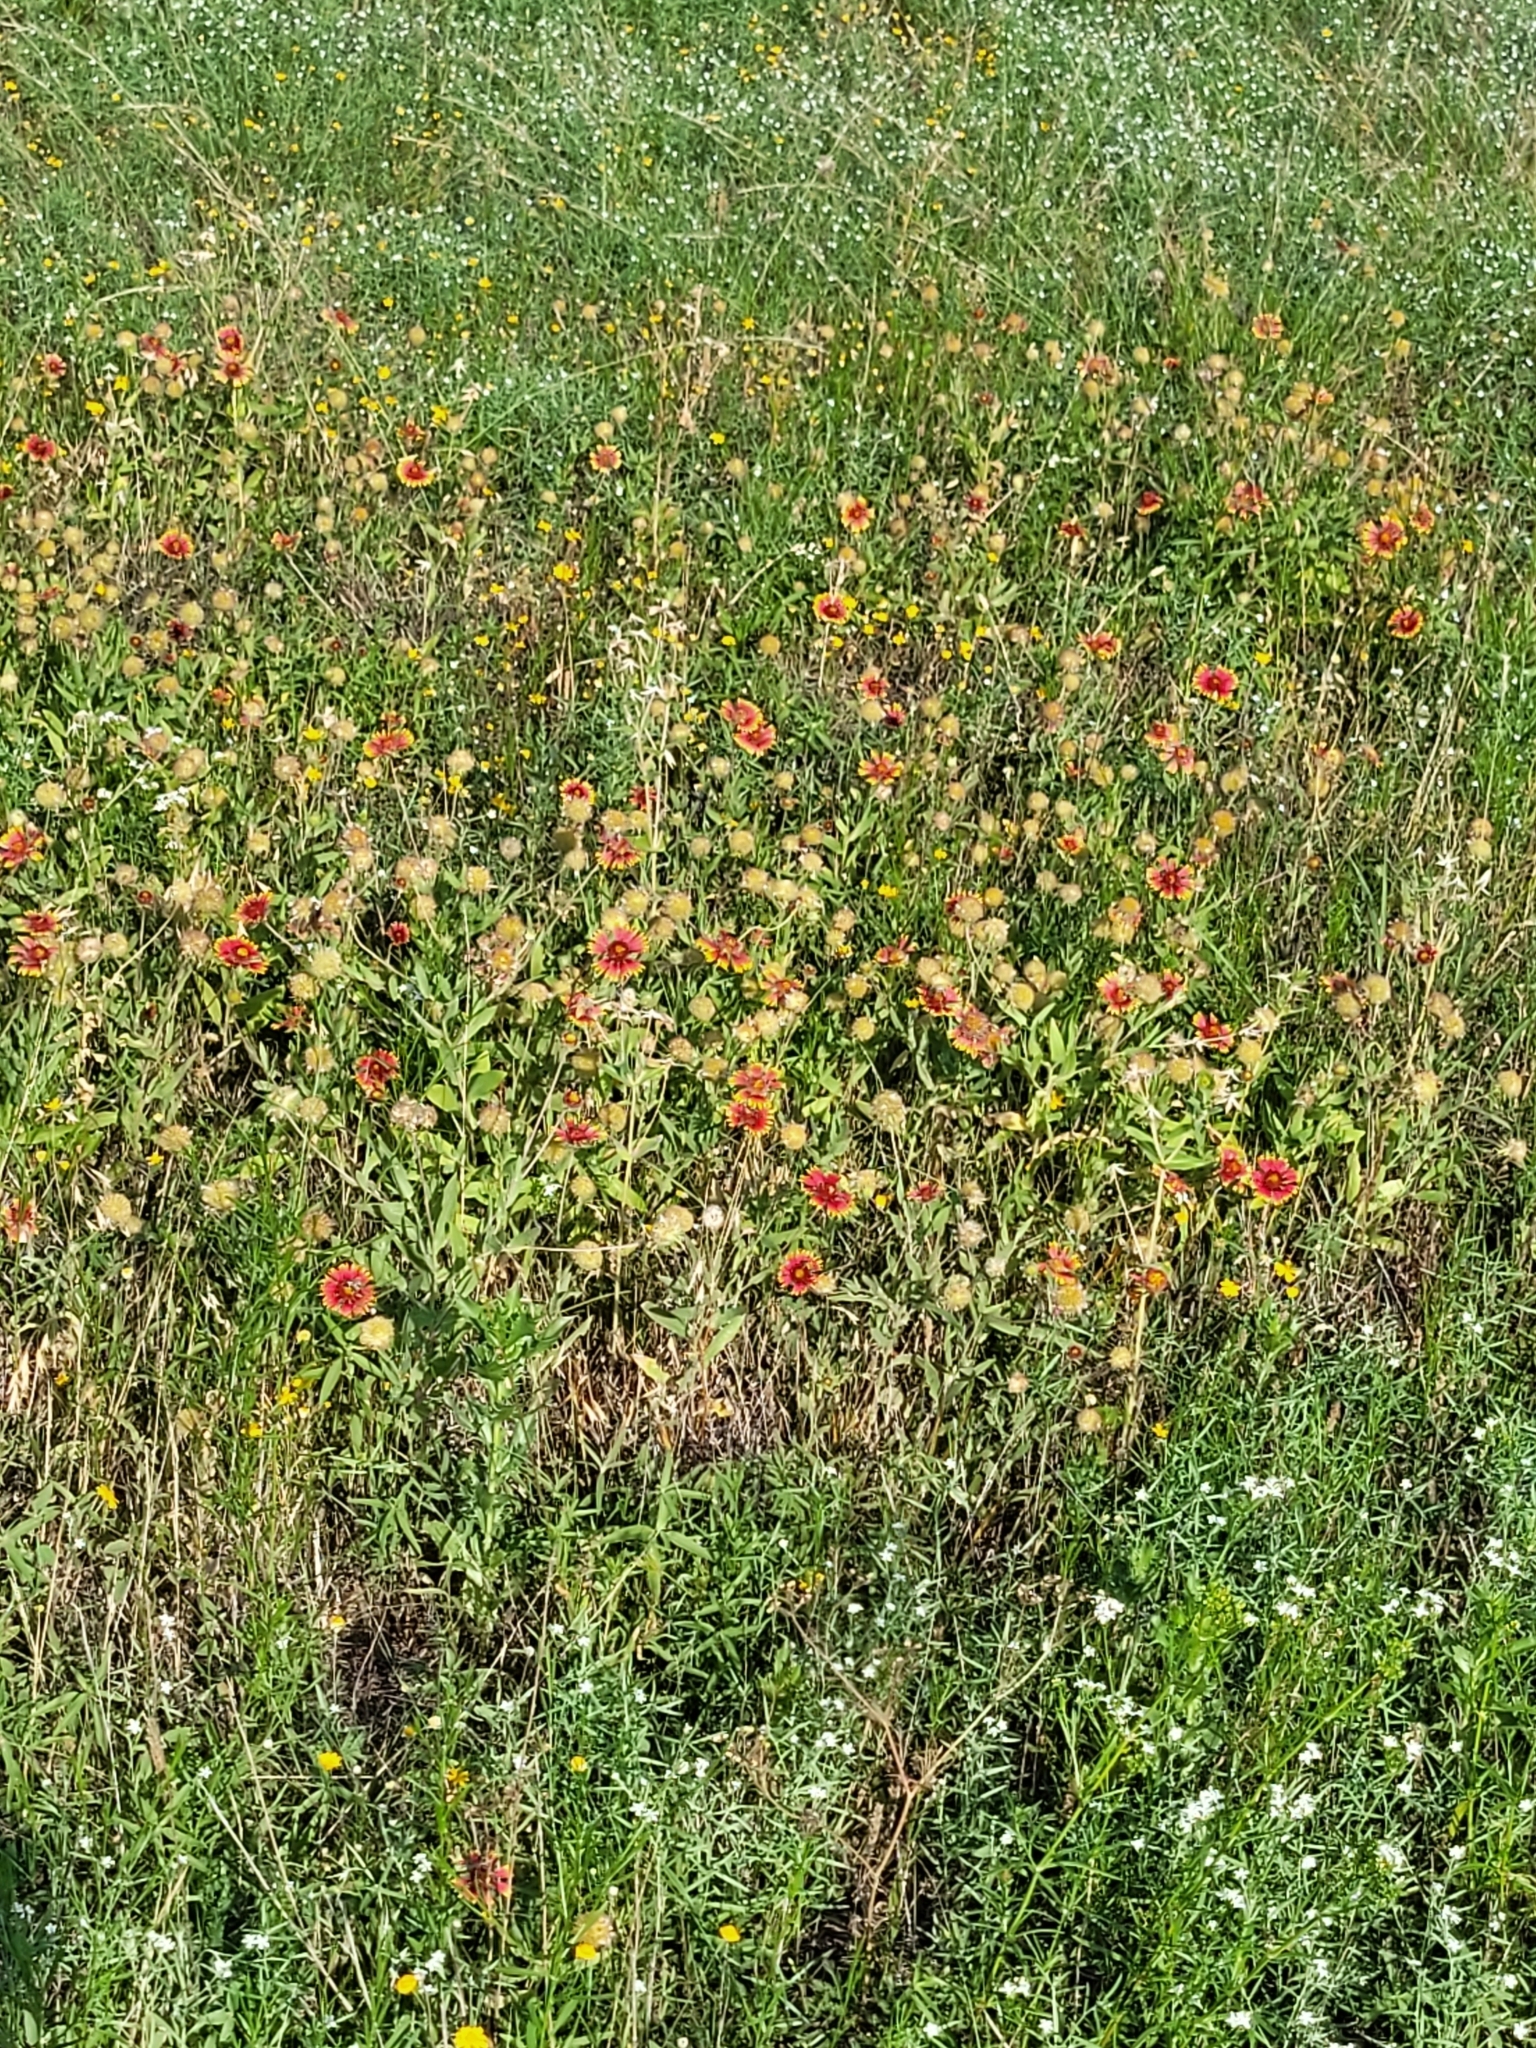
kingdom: Plantae
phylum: Tracheophyta
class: Magnoliopsida
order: Asterales
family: Asteraceae
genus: Gaillardia
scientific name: Gaillardia pulchella
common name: Firewheel
